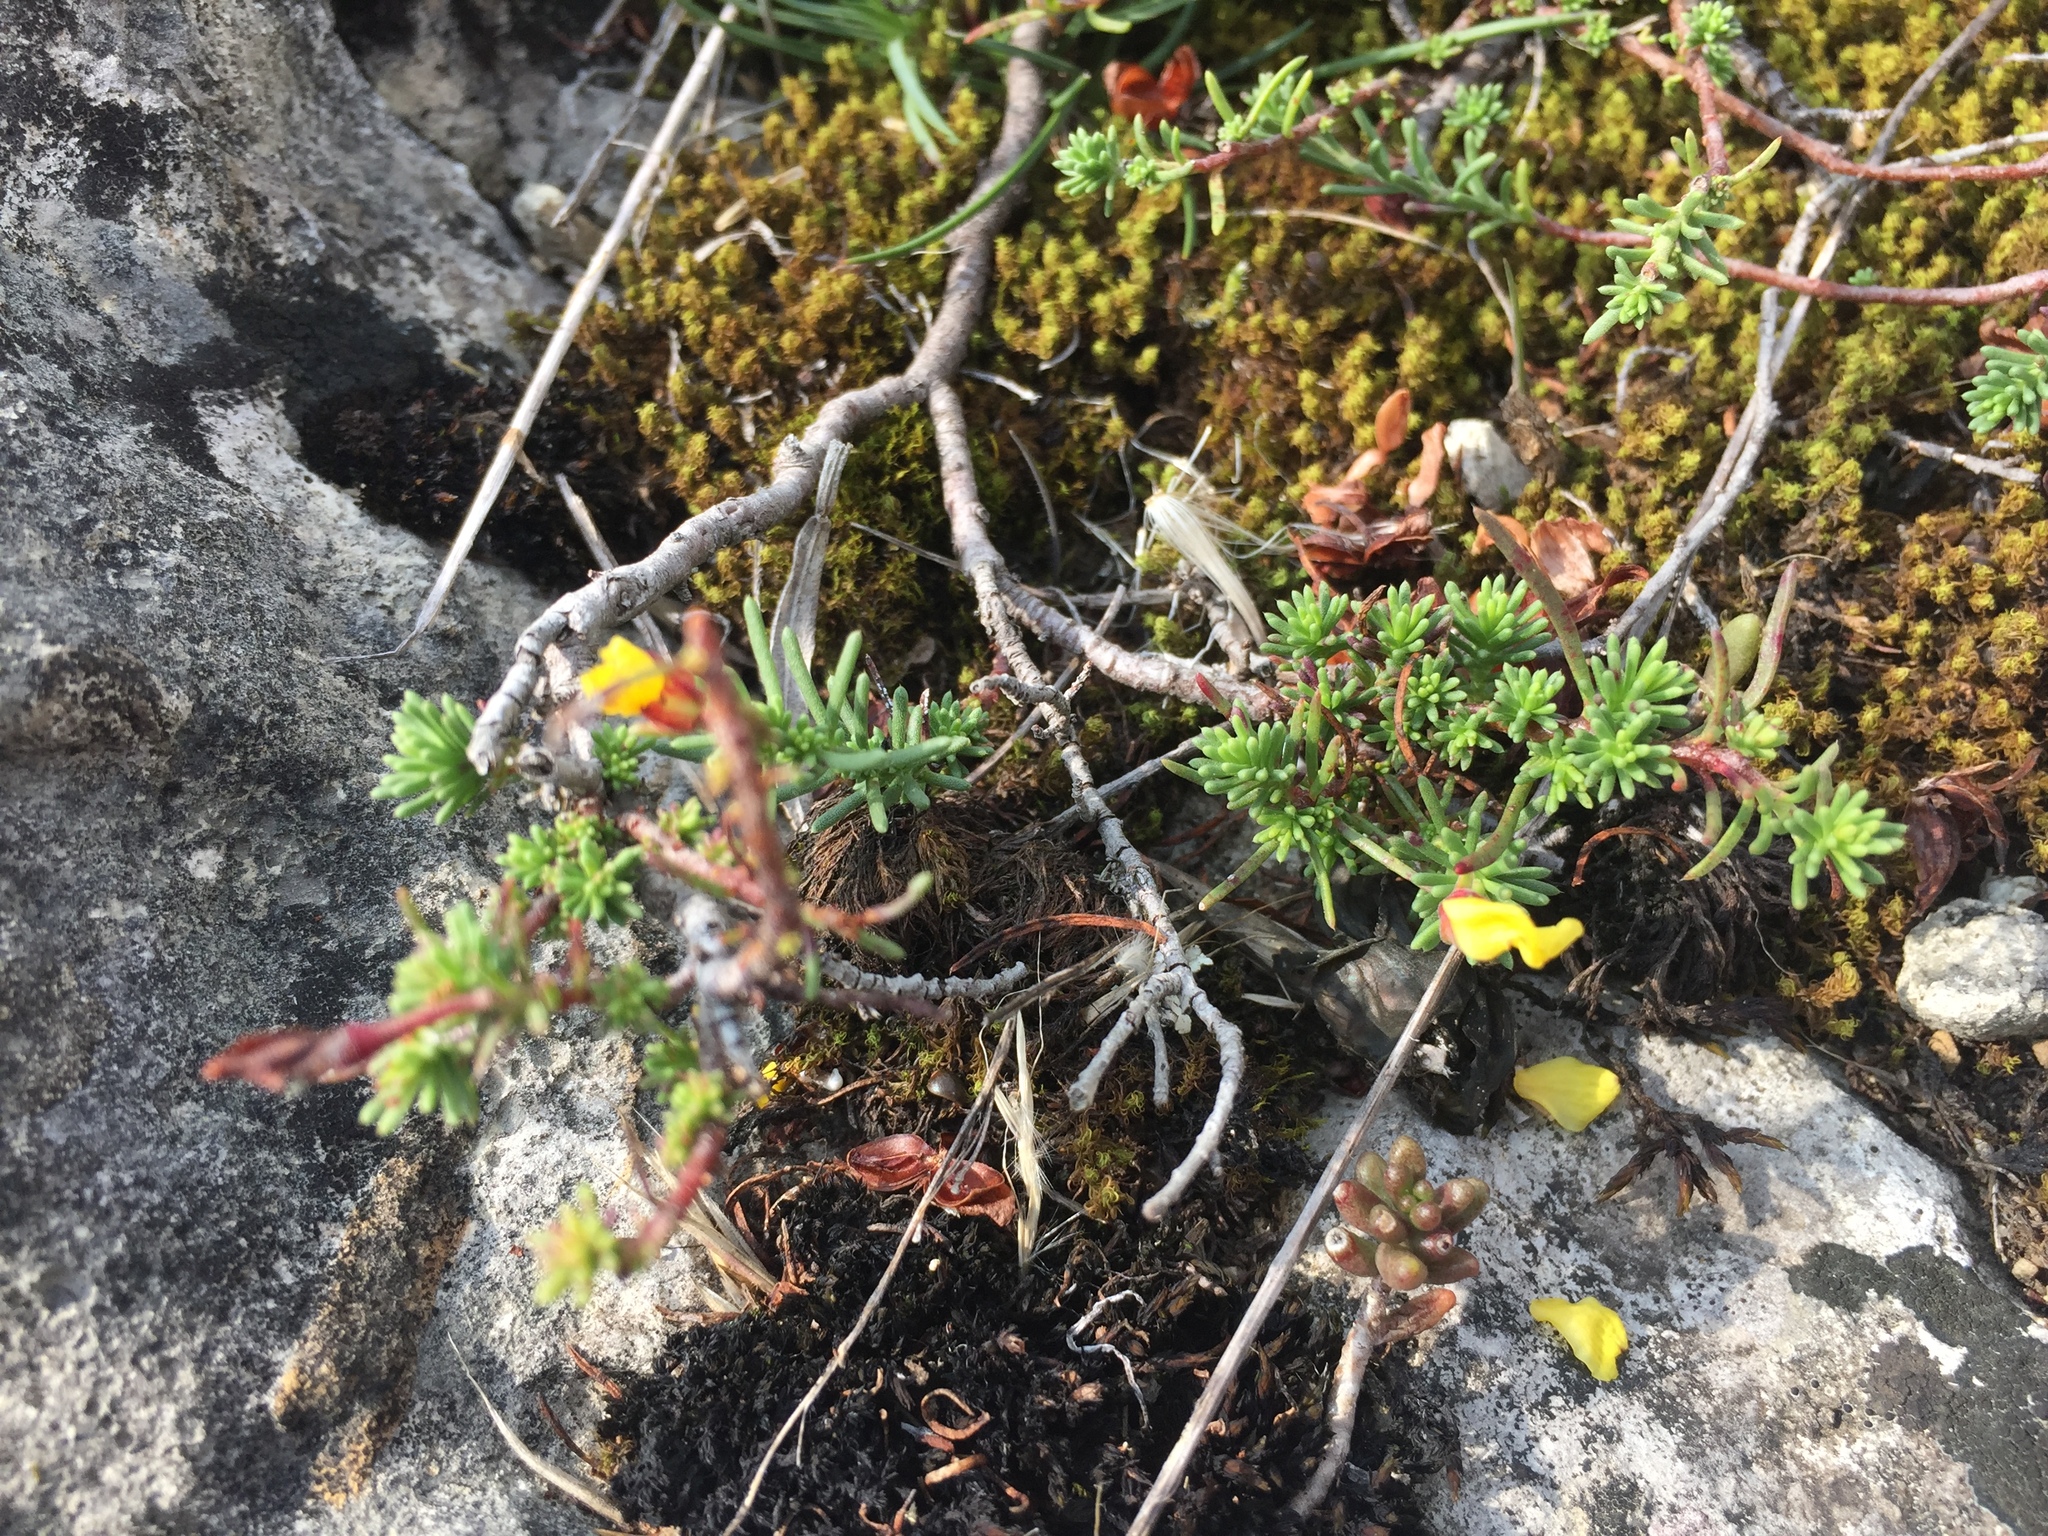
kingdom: Plantae
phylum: Tracheophyta
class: Magnoliopsida
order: Malvales
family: Cistaceae
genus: Fumana
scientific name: Fumana procumbens
